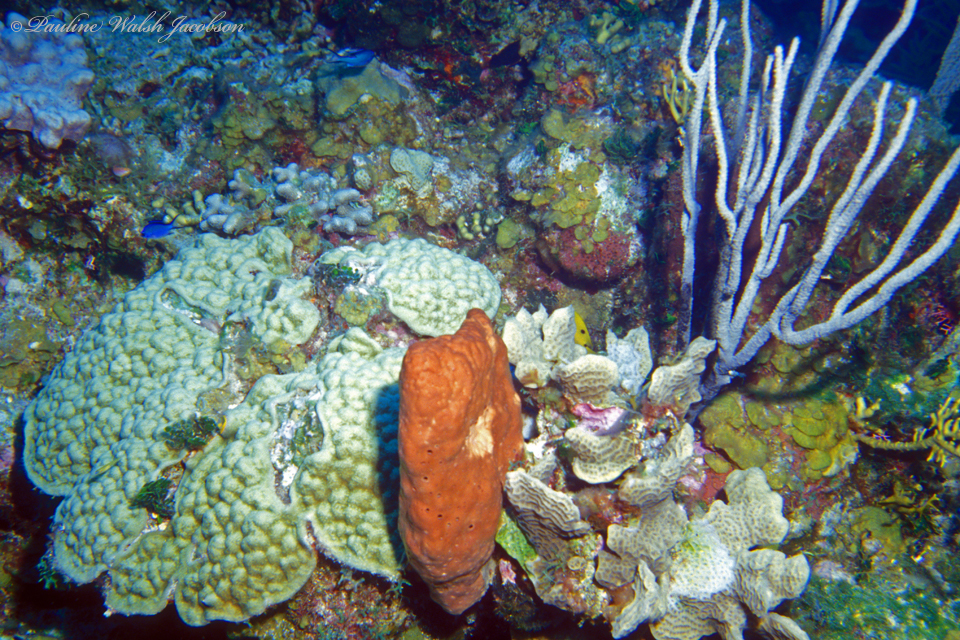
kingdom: Animalia
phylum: Cnidaria
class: Anthozoa
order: Scleractinia
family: Agariciidae
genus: Agaricia
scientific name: Agaricia agaricites
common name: Lettuce coral
